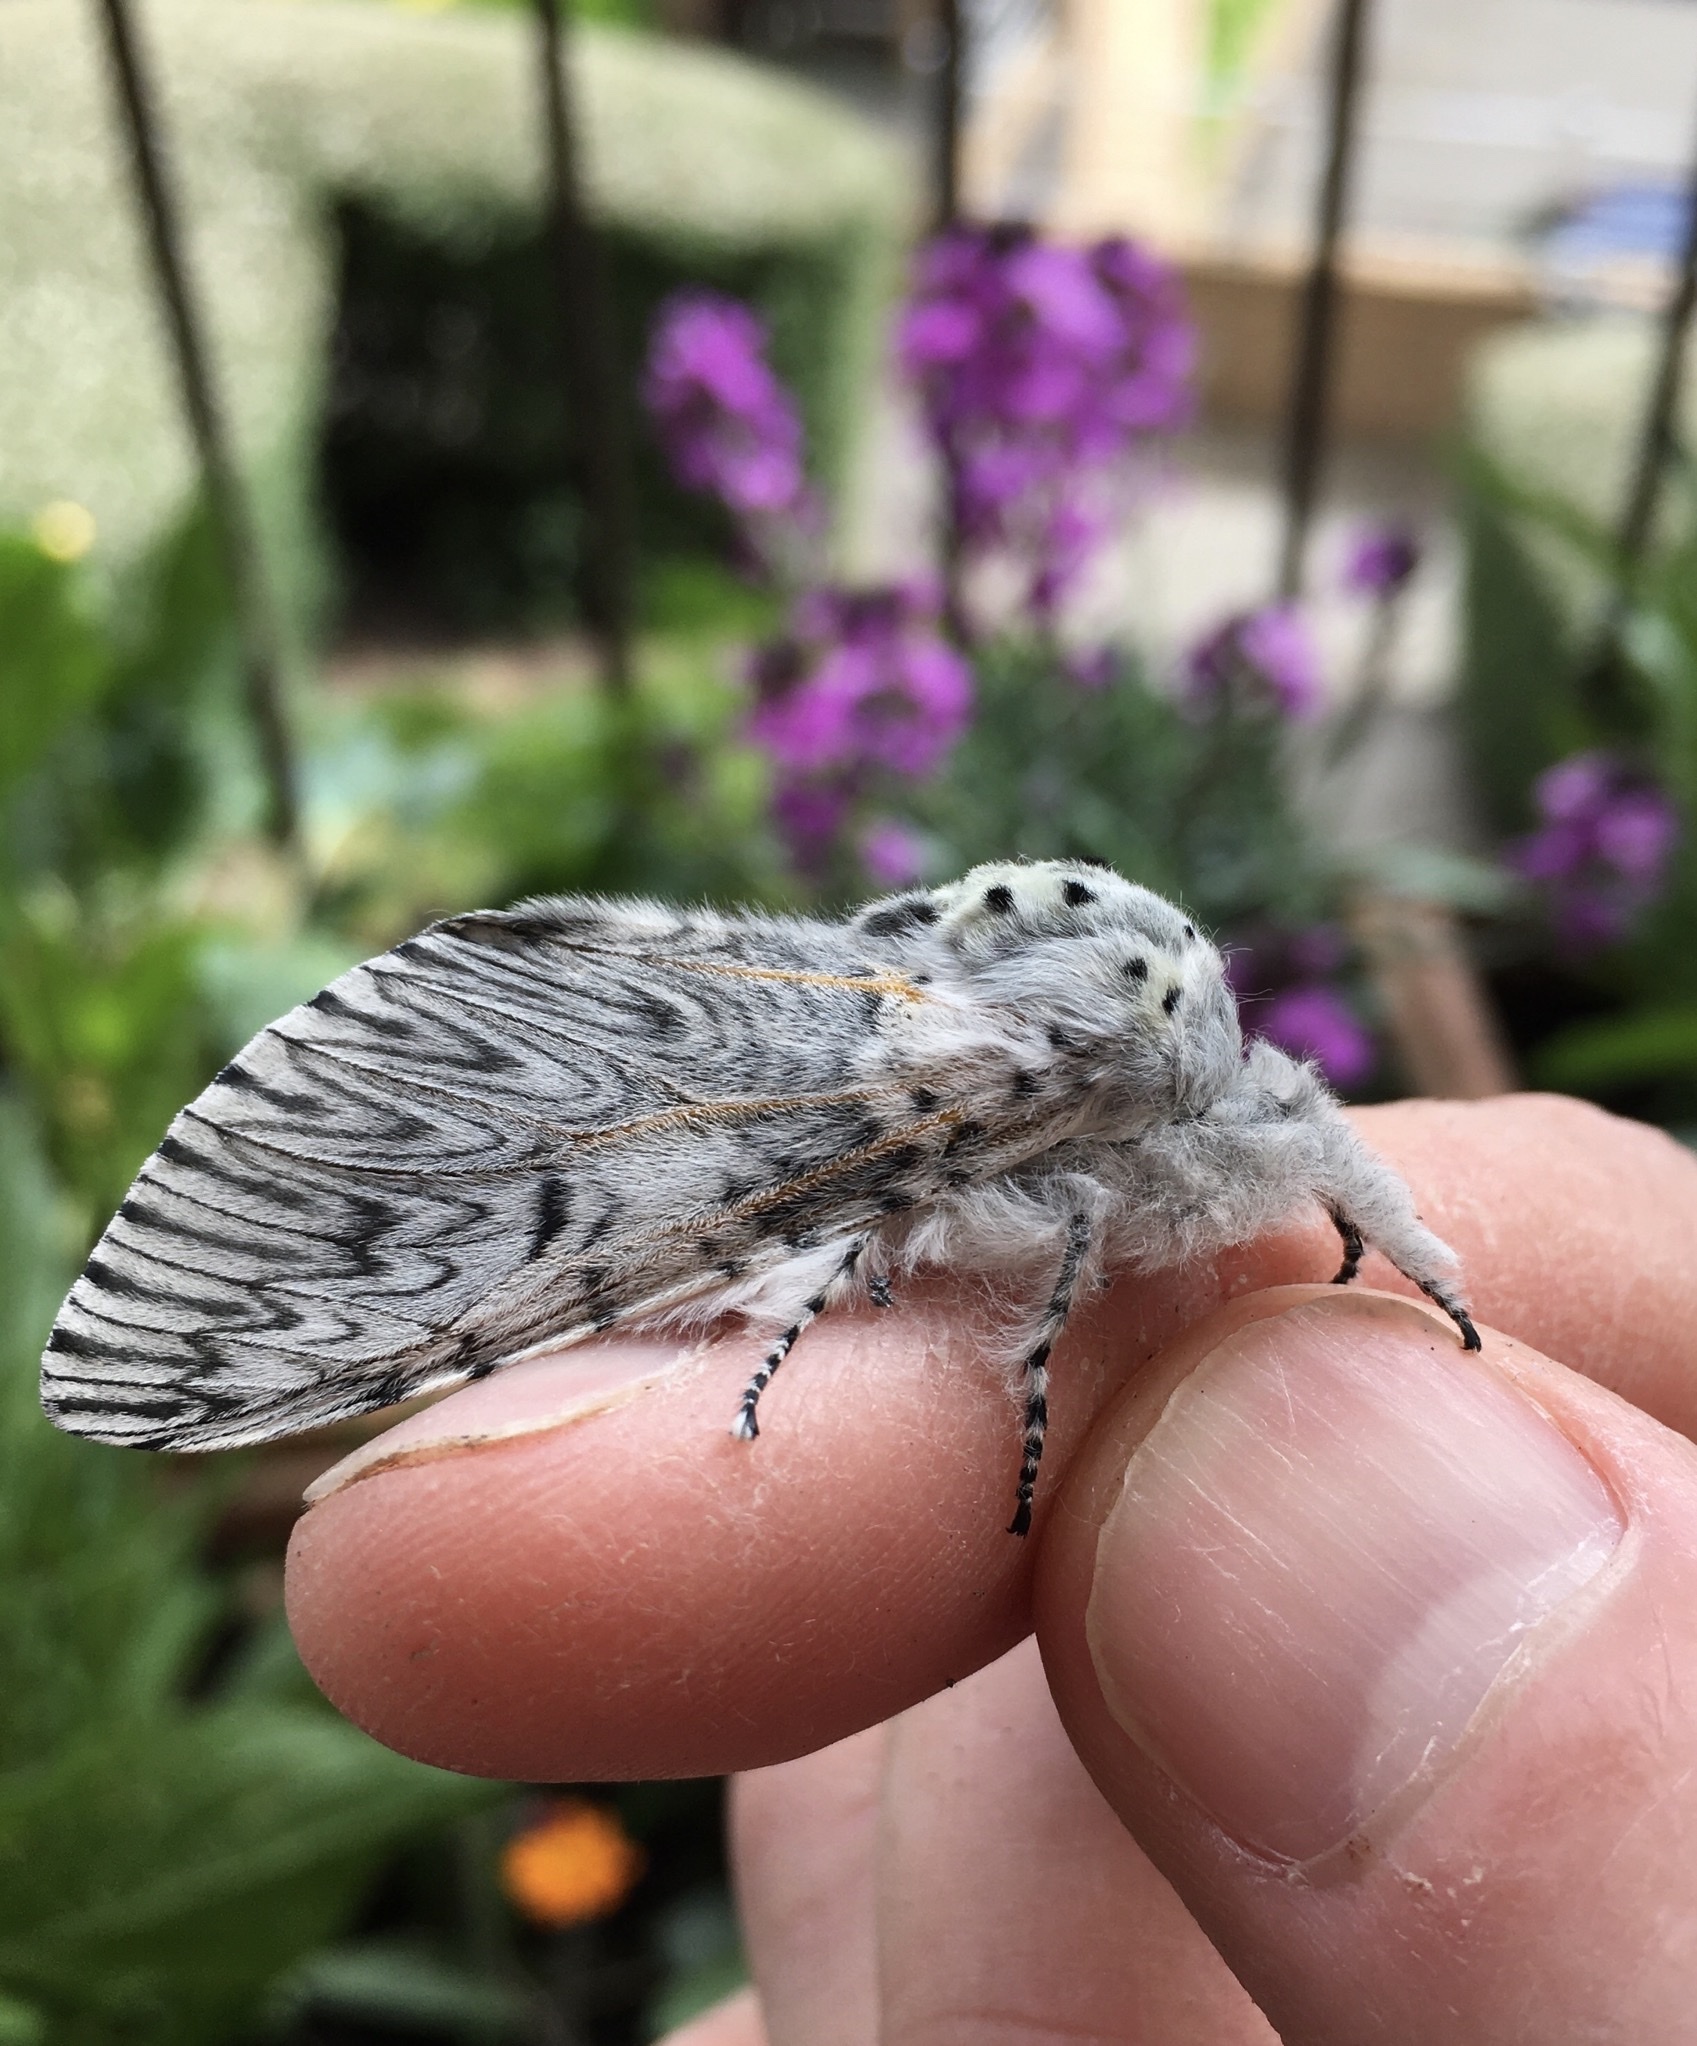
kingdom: Animalia
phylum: Arthropoda
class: Insecta
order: Lepidoptera
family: Notodontidae
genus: Cerura
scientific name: Cerura vinula
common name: Puss moth
